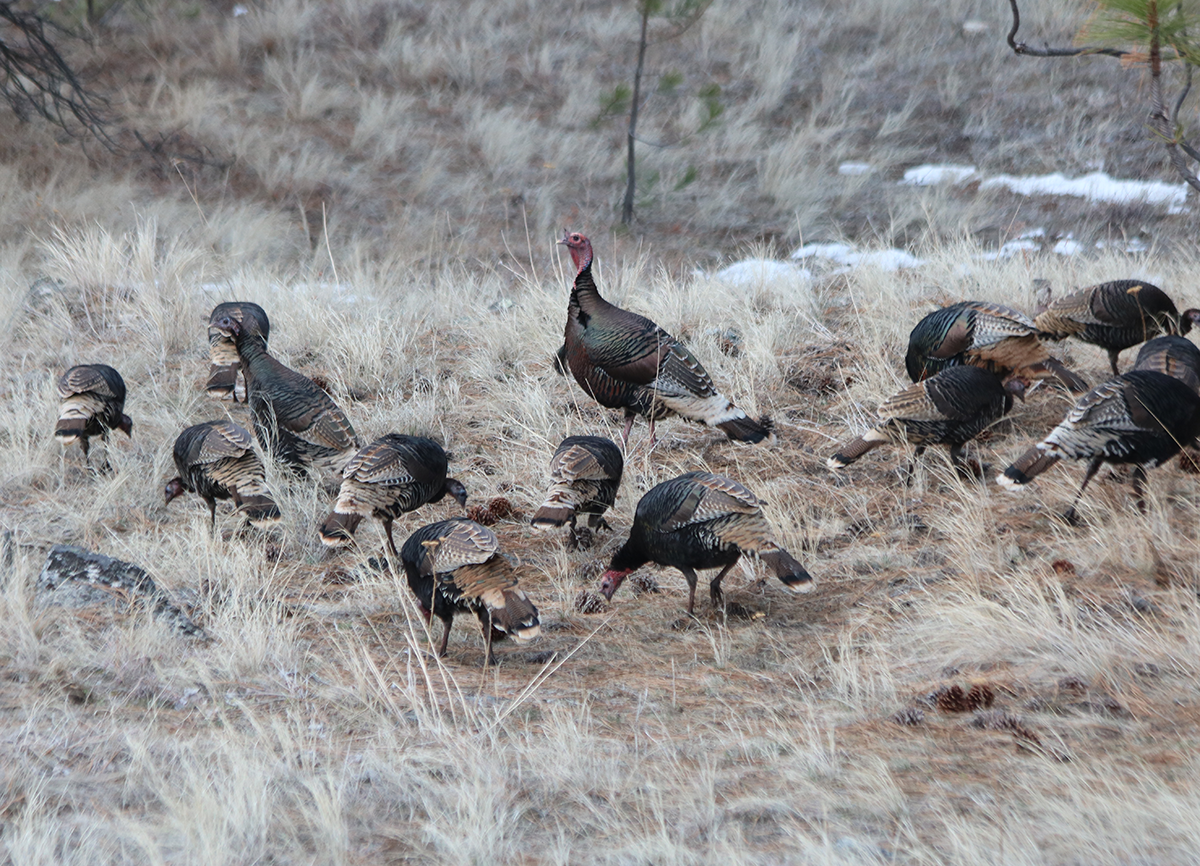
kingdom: Animalia
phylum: Chordata
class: Aves
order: Galliformes
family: Phasianidae
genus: Meleagris
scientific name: Meleagris gallopavo
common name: Wild turkey
